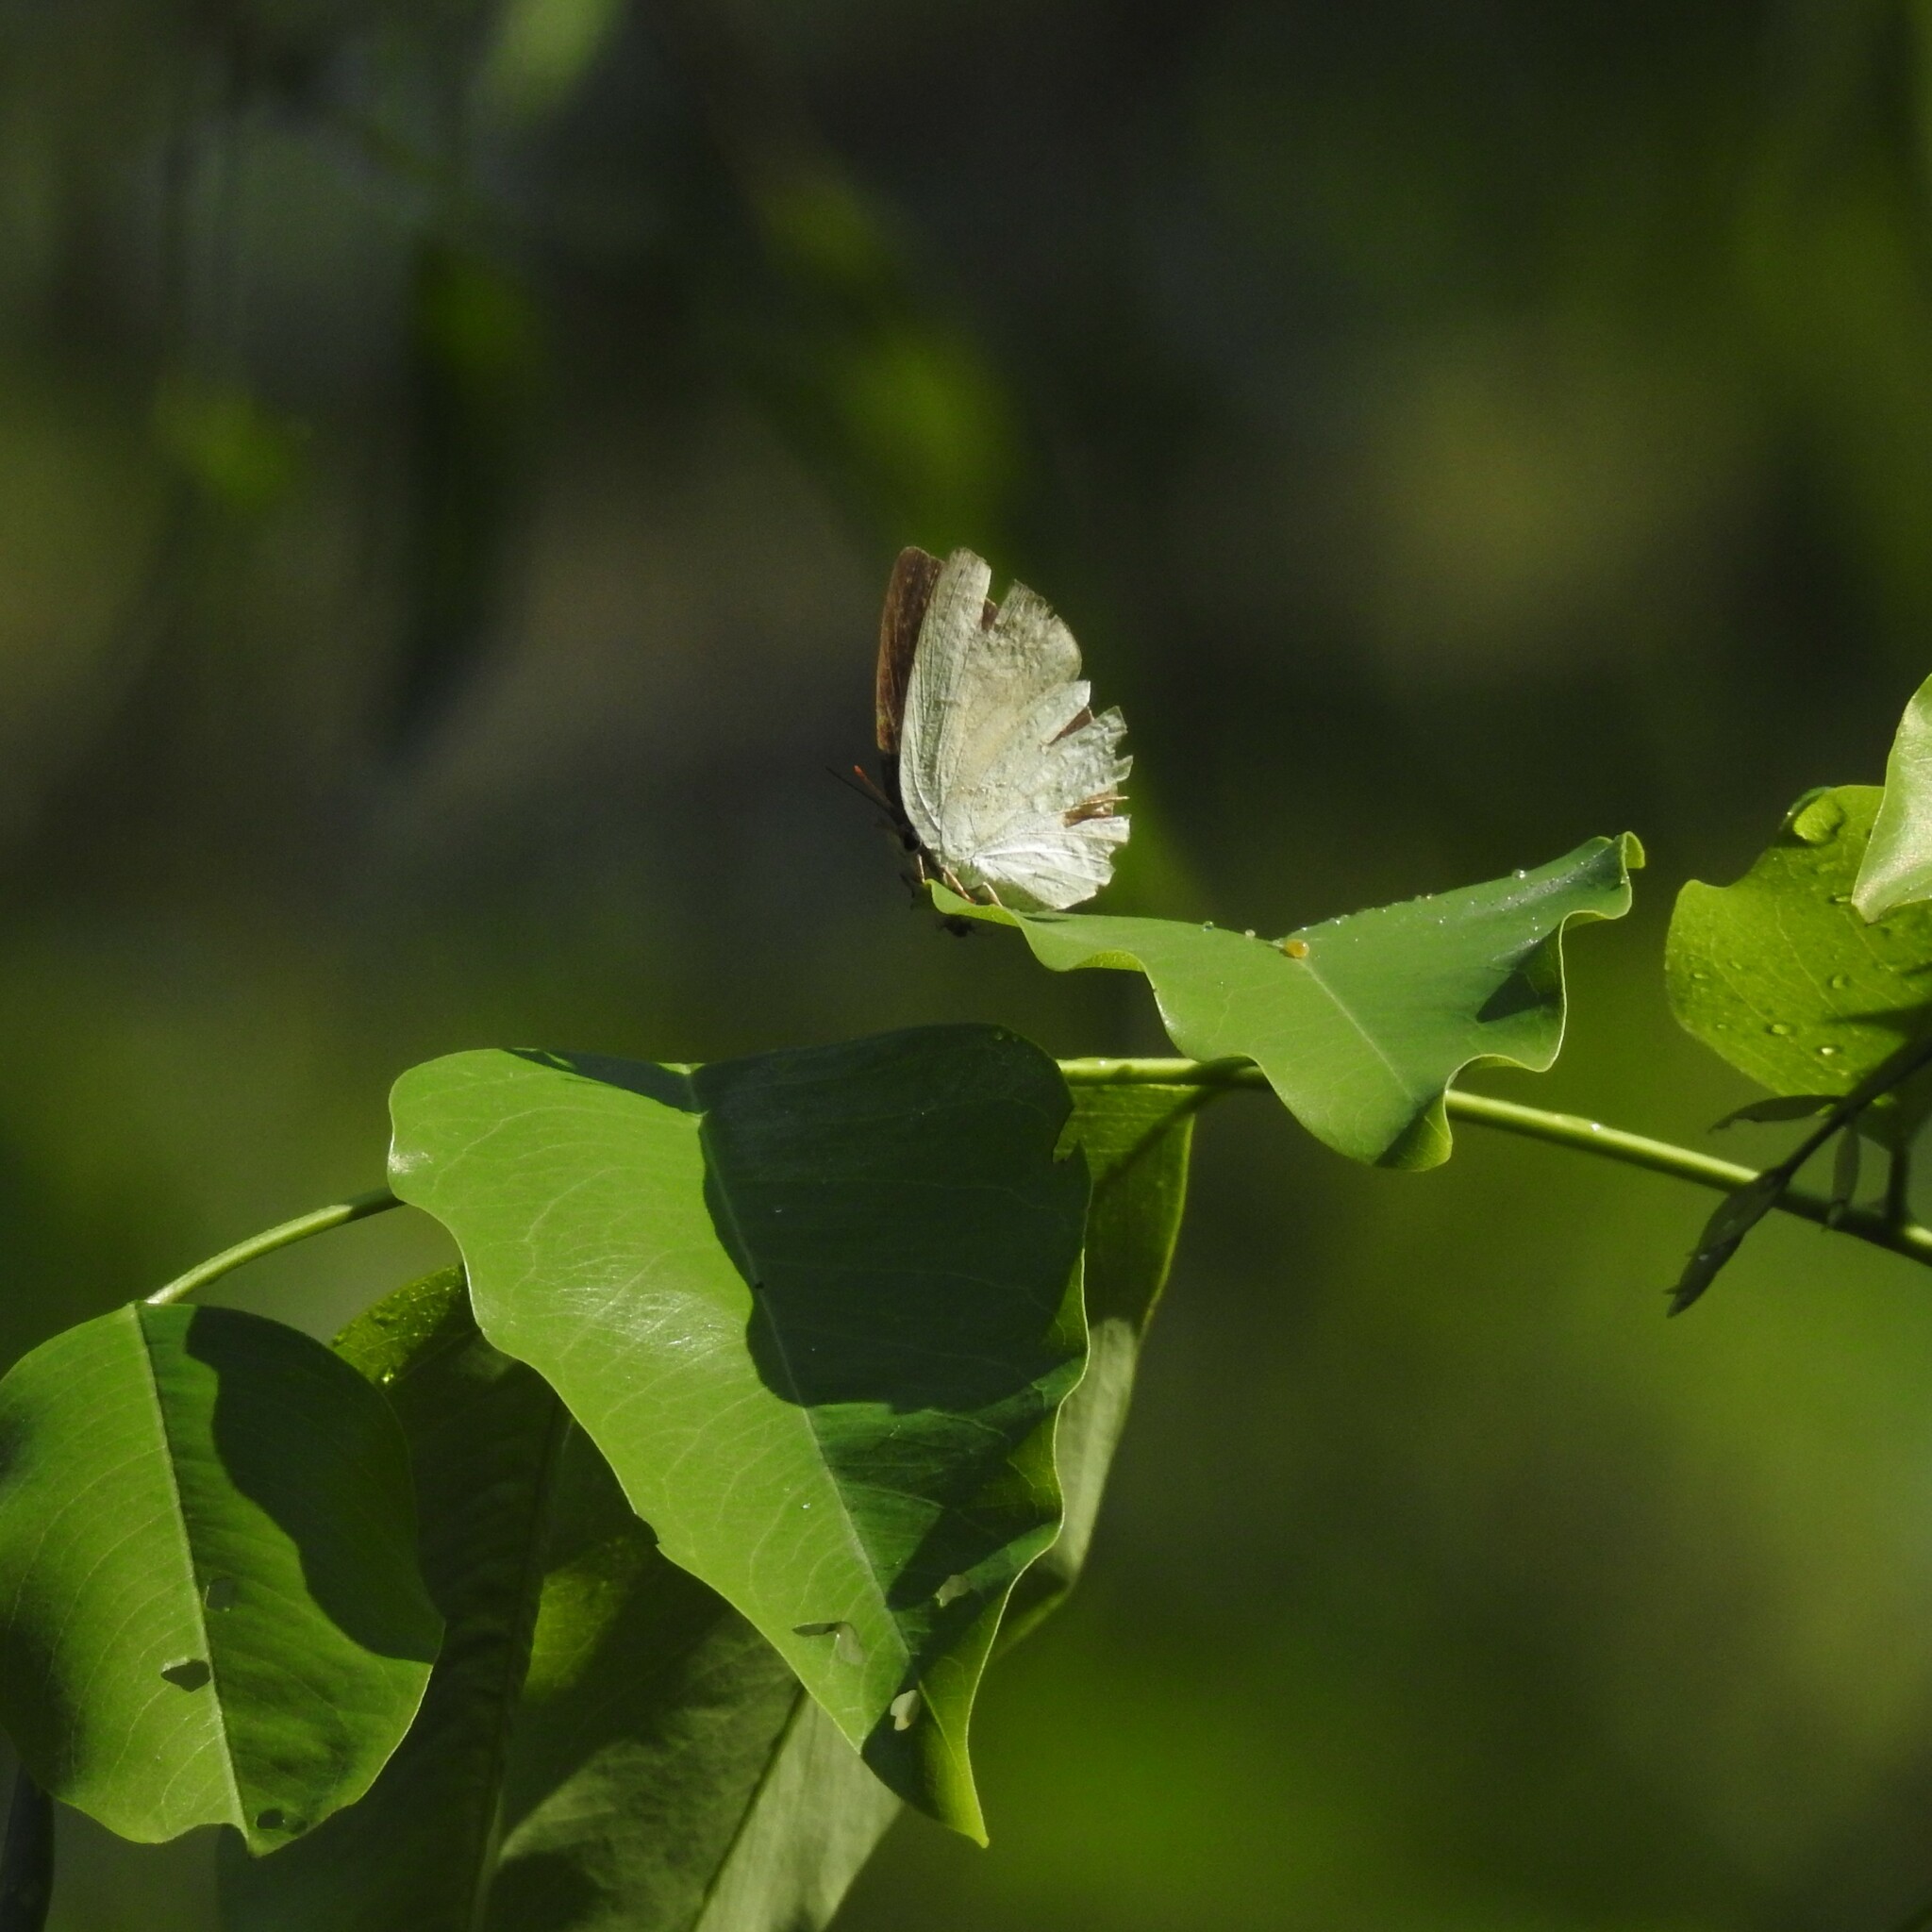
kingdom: Animalia
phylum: Arthropoda
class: Insecta
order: Lepidoptera
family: Lycaenidae
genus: Curetis
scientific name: Curetis thetis
